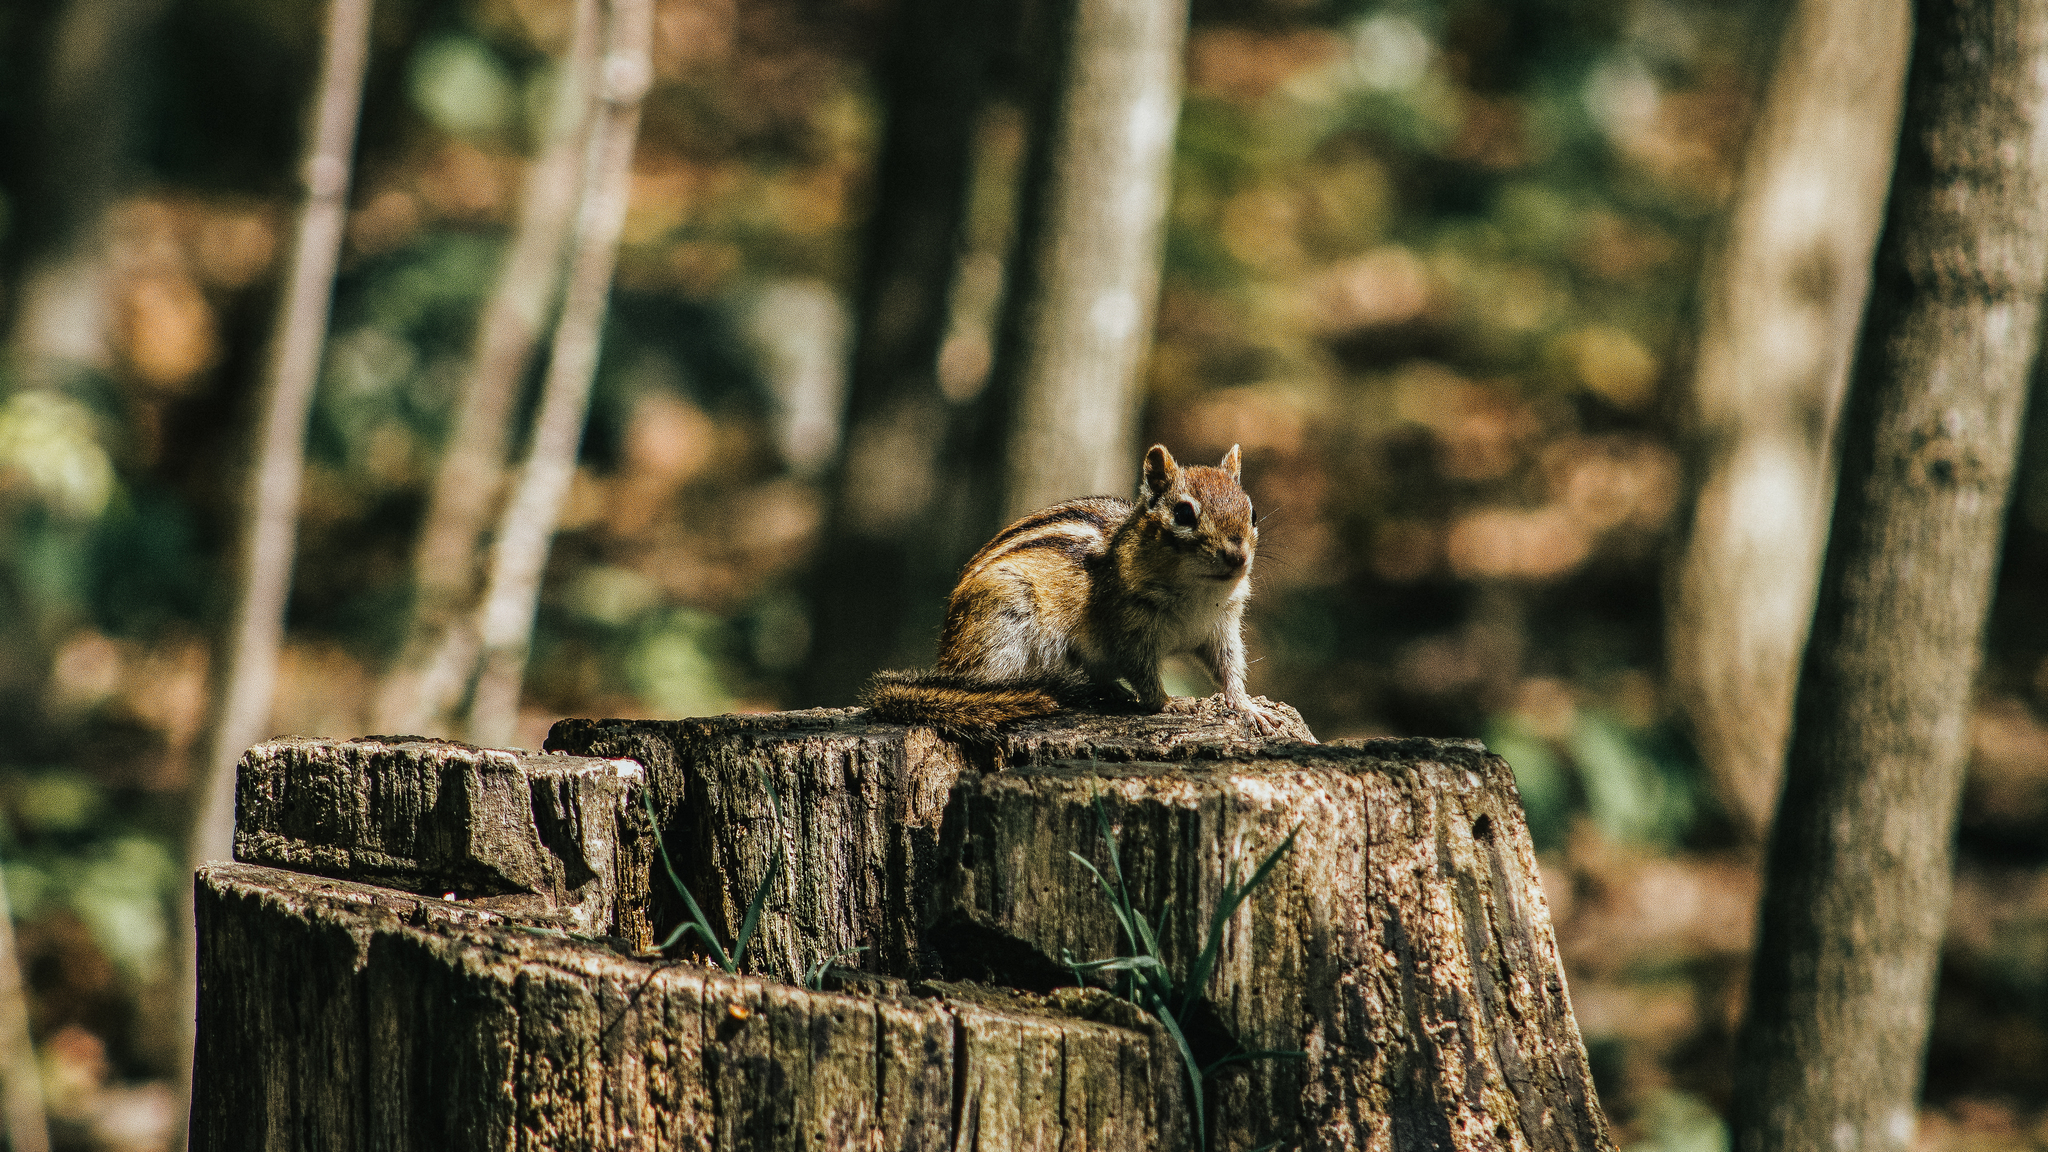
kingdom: Animalia
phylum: Chordata
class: Mammalia
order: Rodentia
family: Sciuridae
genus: Tamias
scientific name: Tamias striatus
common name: Eastern chipmunk
